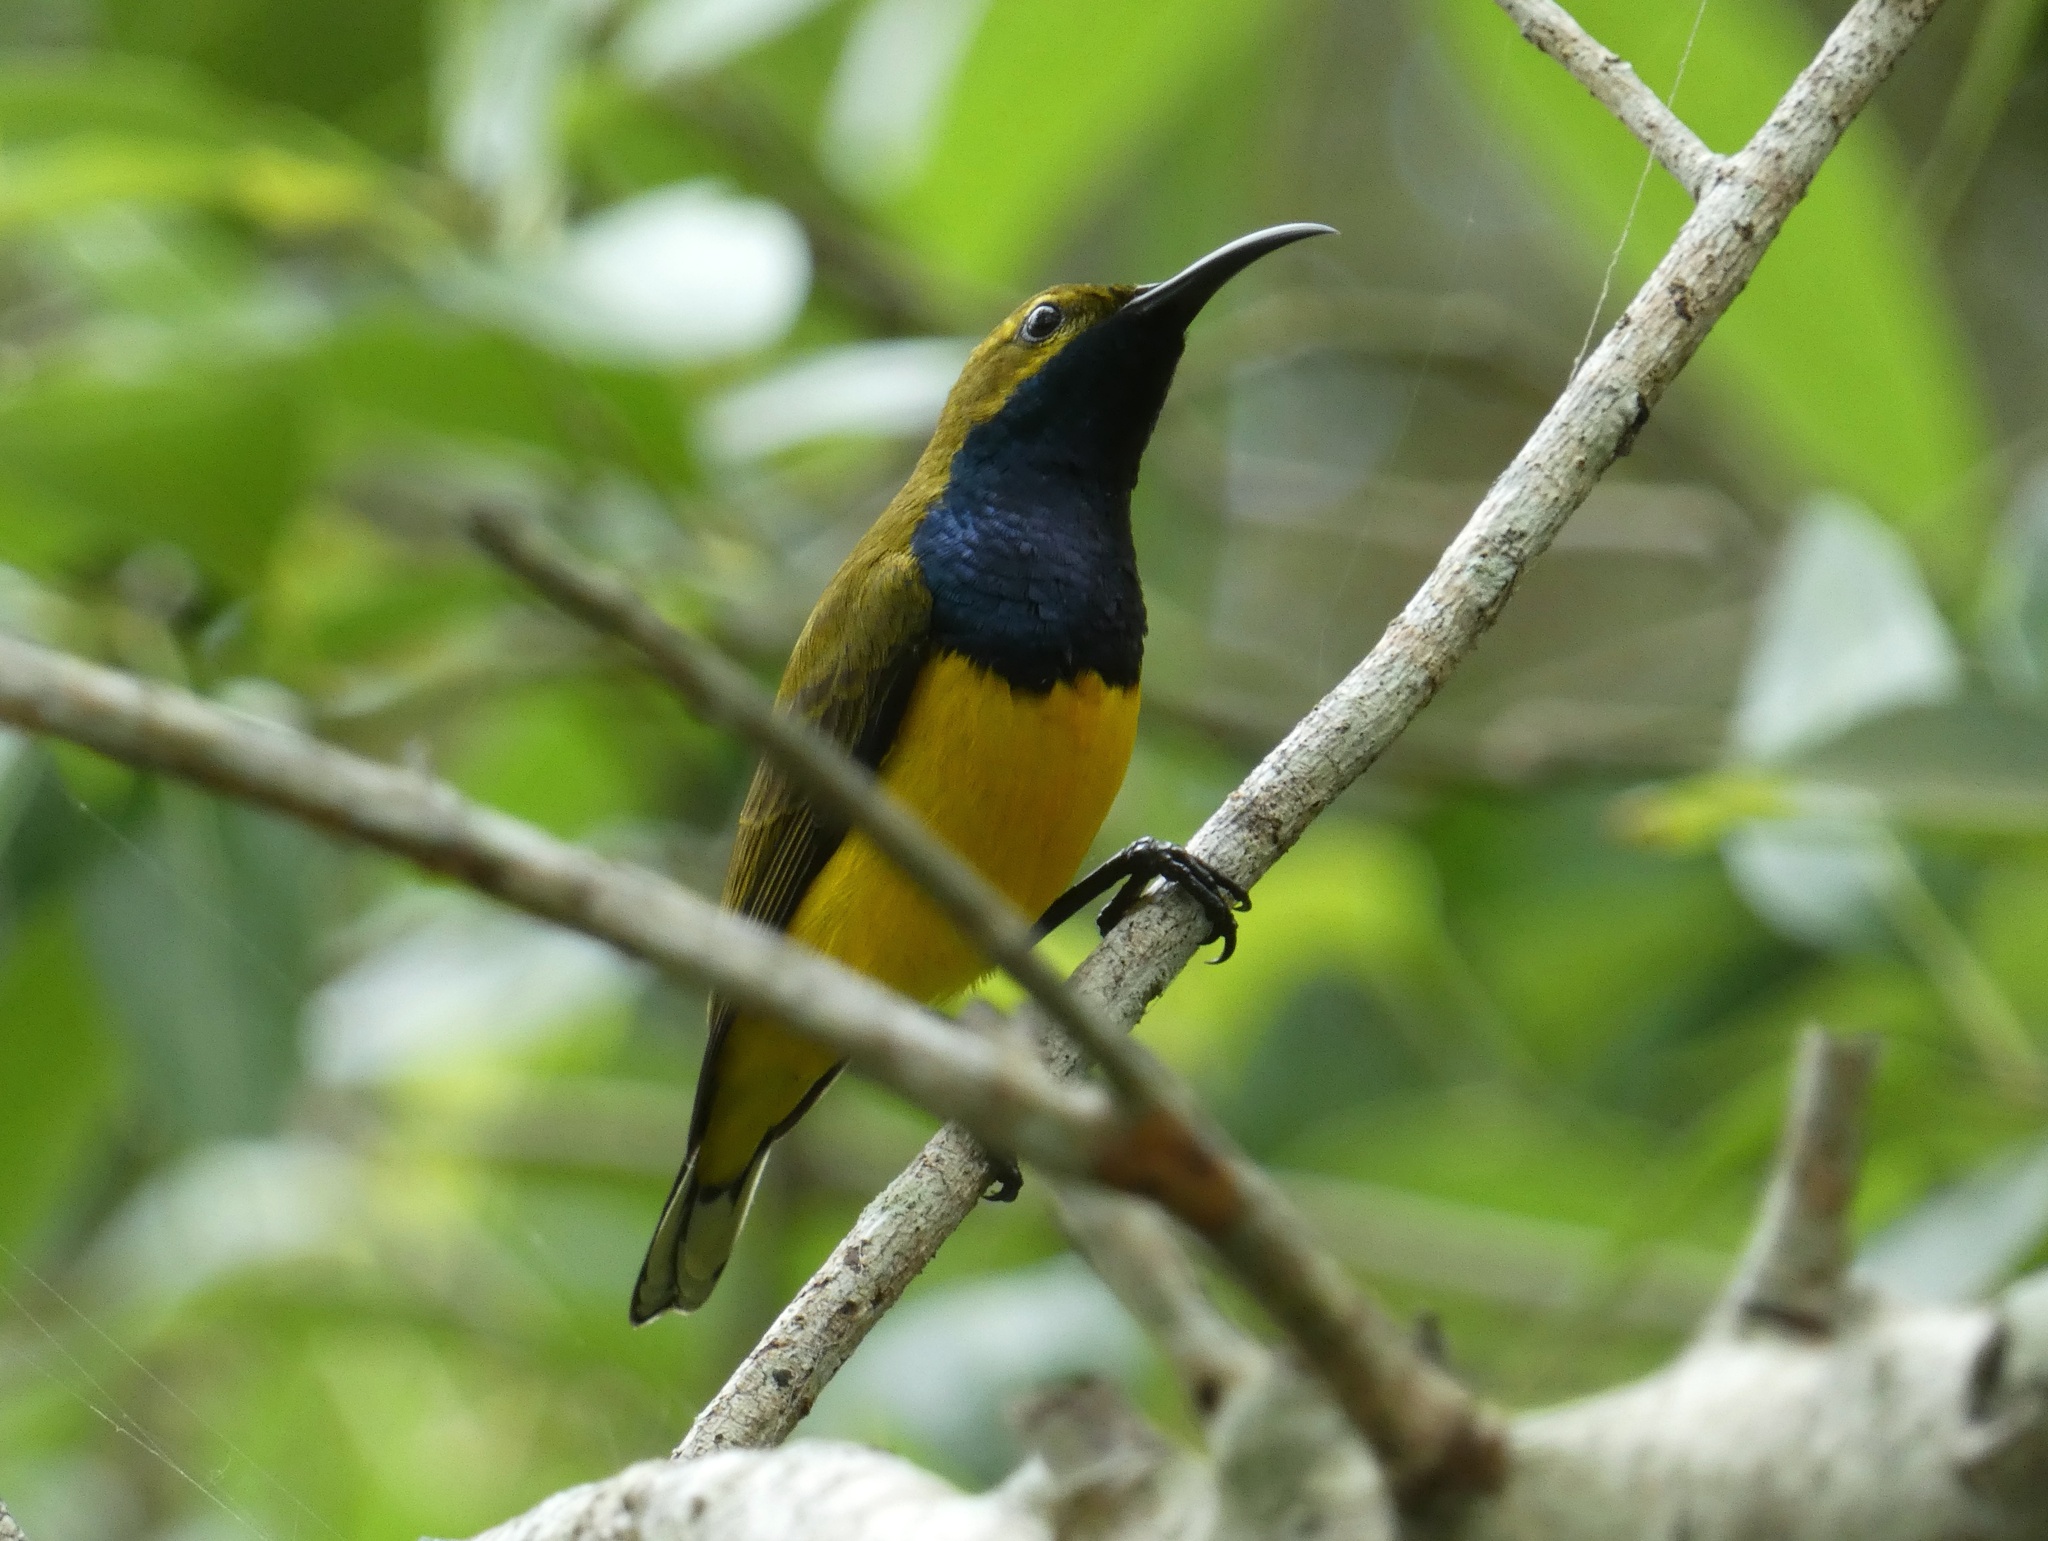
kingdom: Animalia
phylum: Chordata
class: Aves
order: Passeriformes
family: Nectariniidae
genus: Cinnyris
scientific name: Cinnyris
